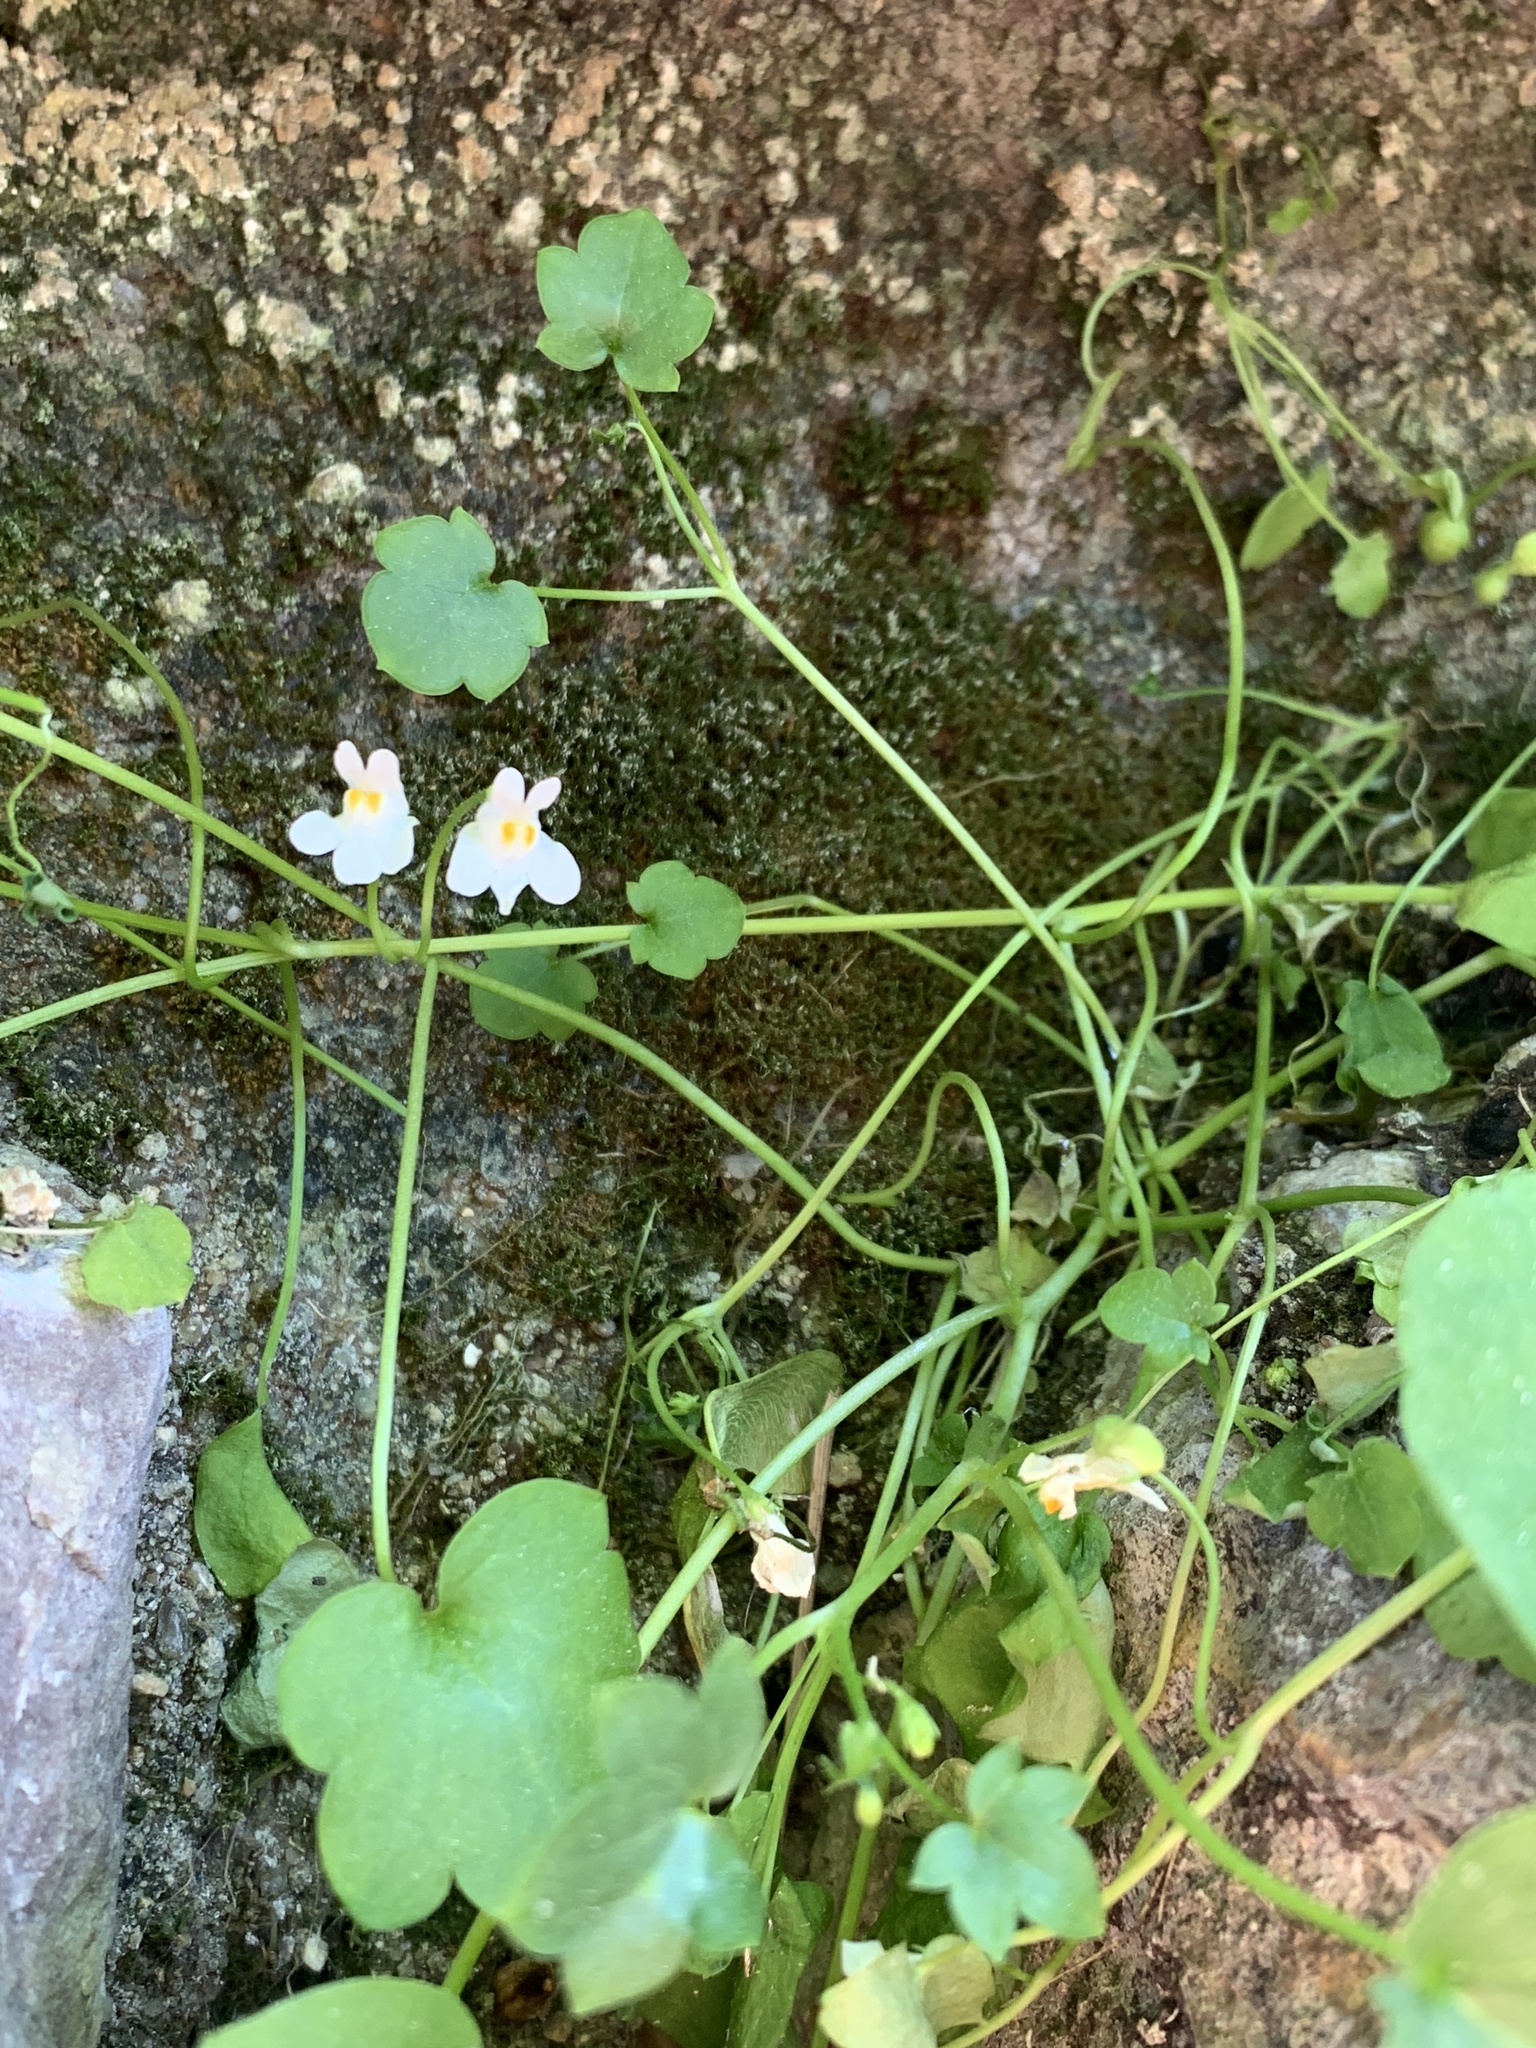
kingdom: Plantae
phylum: Tracheophyta
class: Magnoliopsida
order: Lamiales
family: Plantaginaceae
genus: Cymbalaria
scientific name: Cymbalaria muralis
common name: Ivy-leaved toadflax
